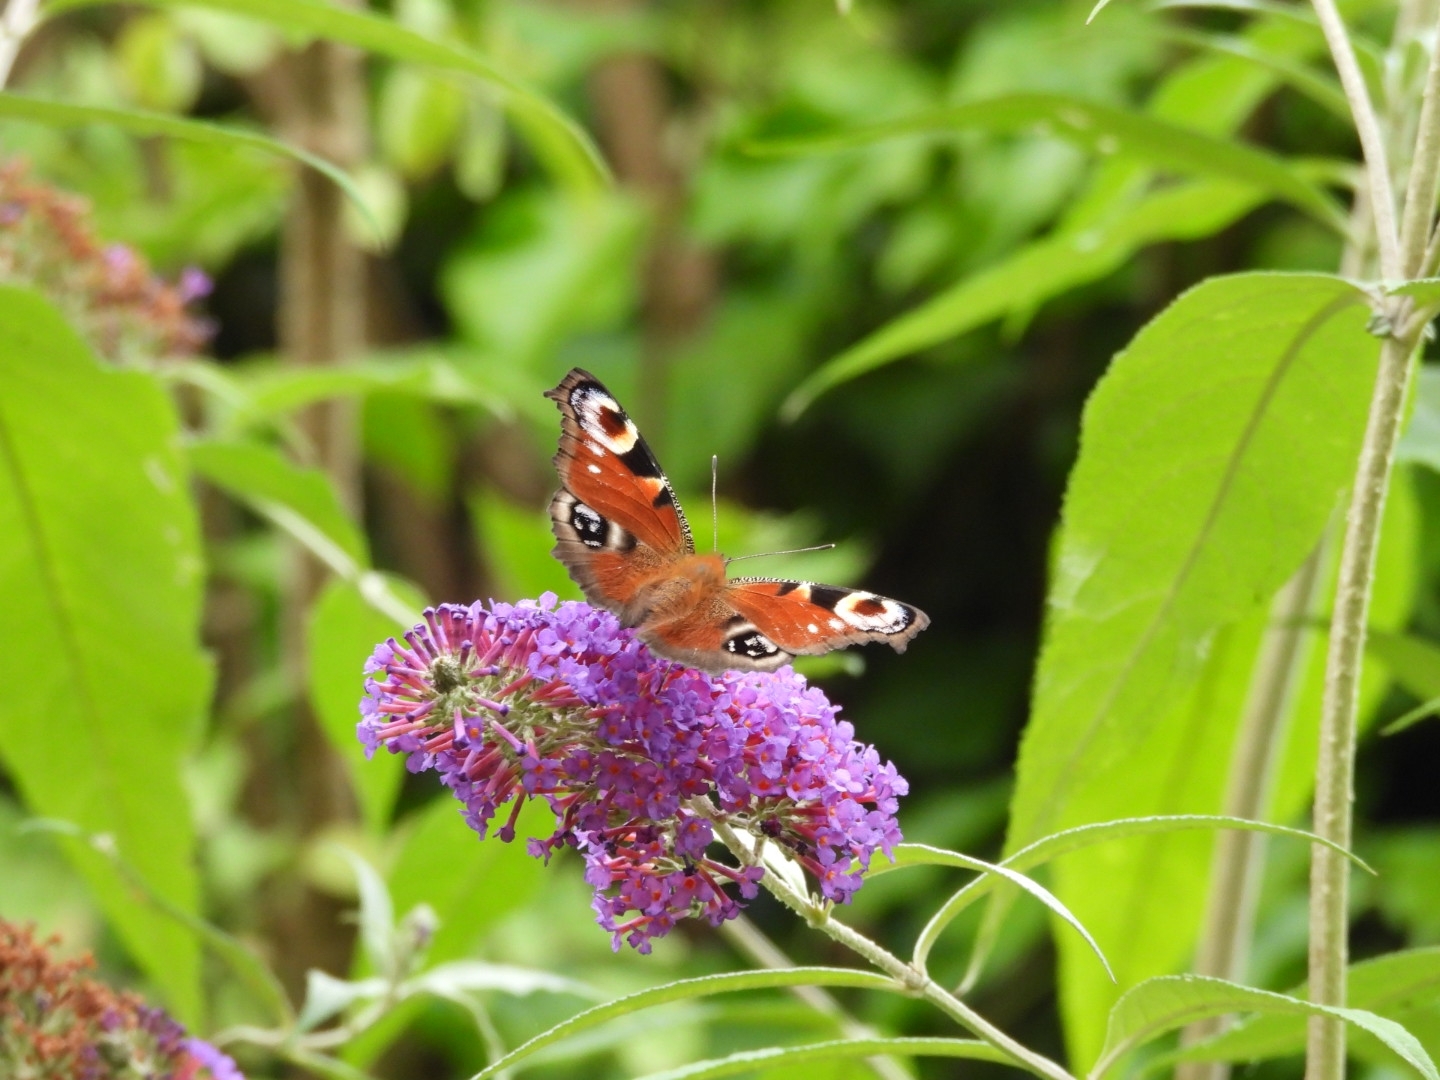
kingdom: Animalia
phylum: Arthropoda
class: Insecta
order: Lepidoptera
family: Nymphalidae
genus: Aglais
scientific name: Aglais io
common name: Peacock
